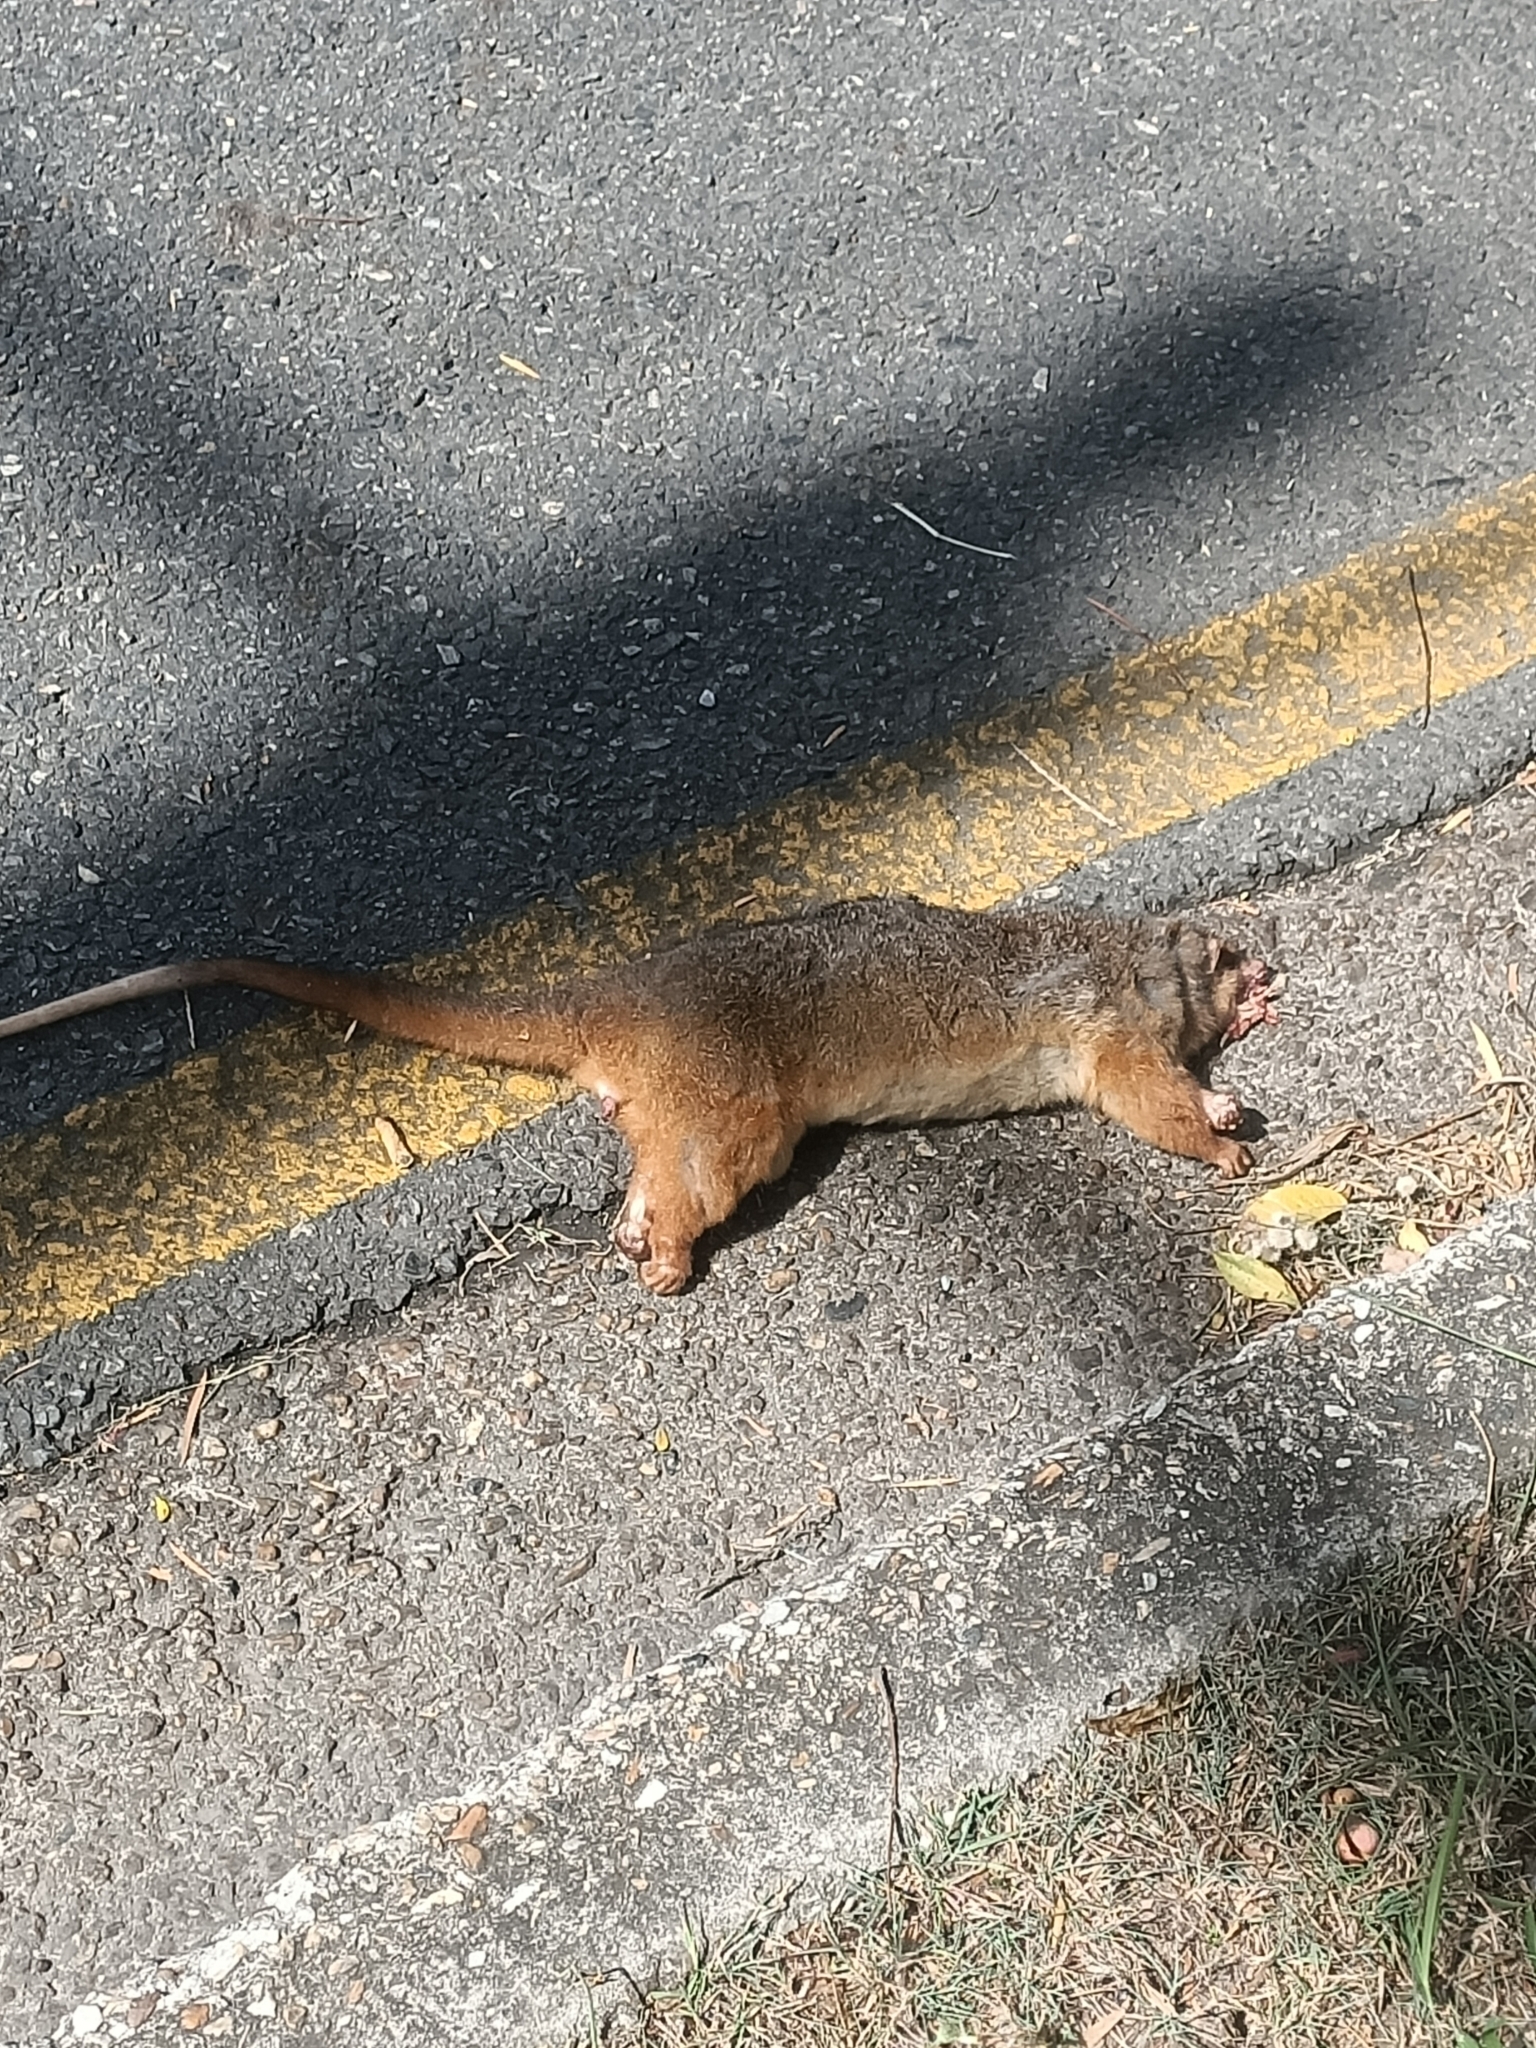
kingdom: Animalia
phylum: Chordata
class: Mammalia
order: Diprotodontia
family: Pseudocheiridae
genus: Pseudocheirus
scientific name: Pseudocheirus peregrinus
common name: Common ringtail possum
